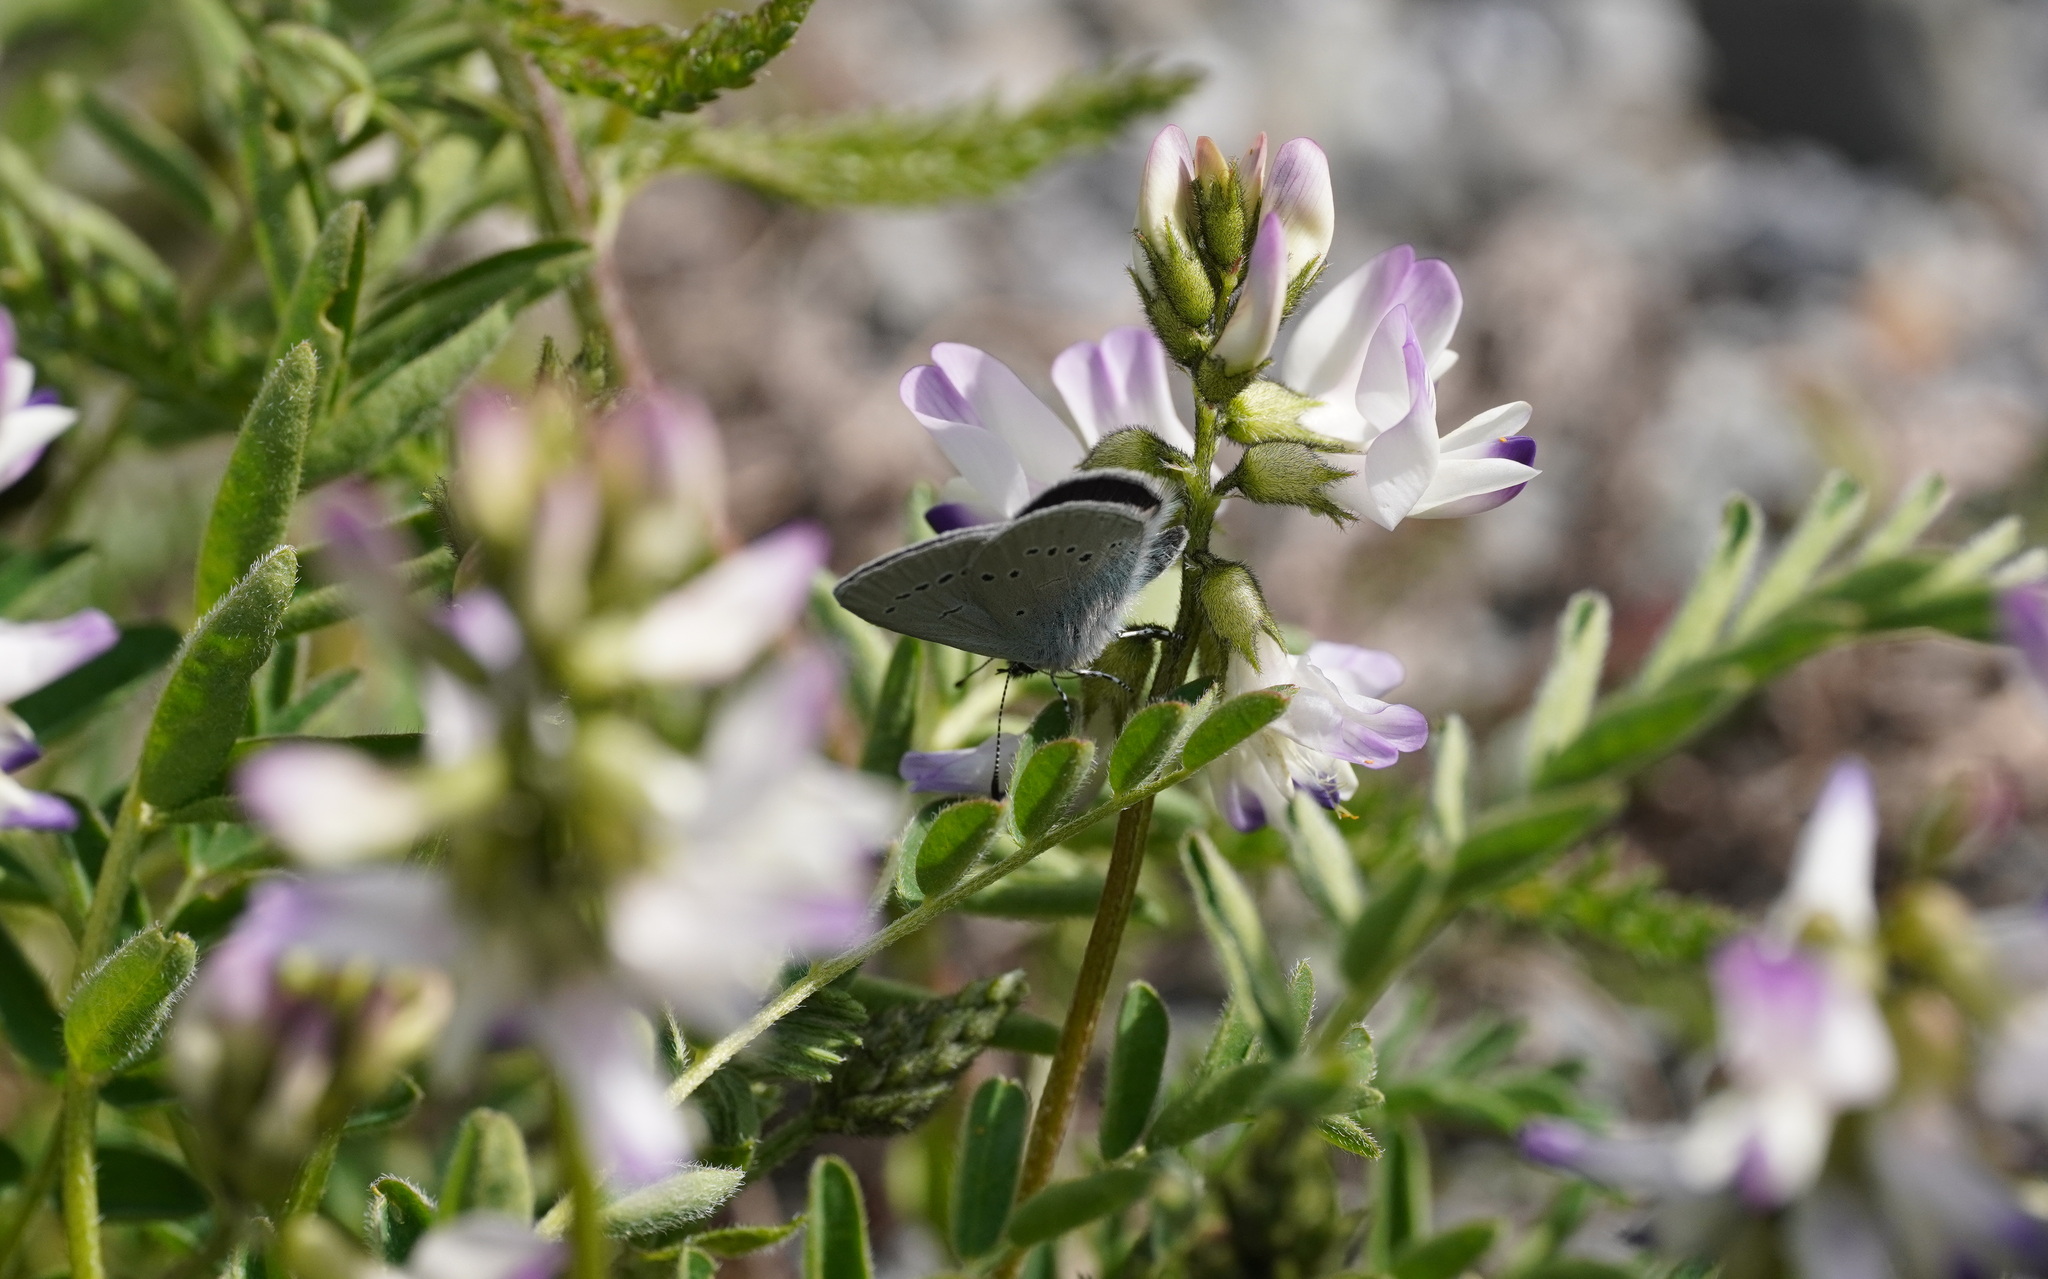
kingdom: Animalia
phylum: Arthropoda
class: Insecta
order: Lepidoptera
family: Lycaenidae
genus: Cupido
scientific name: Cupido minimus
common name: Small blue
